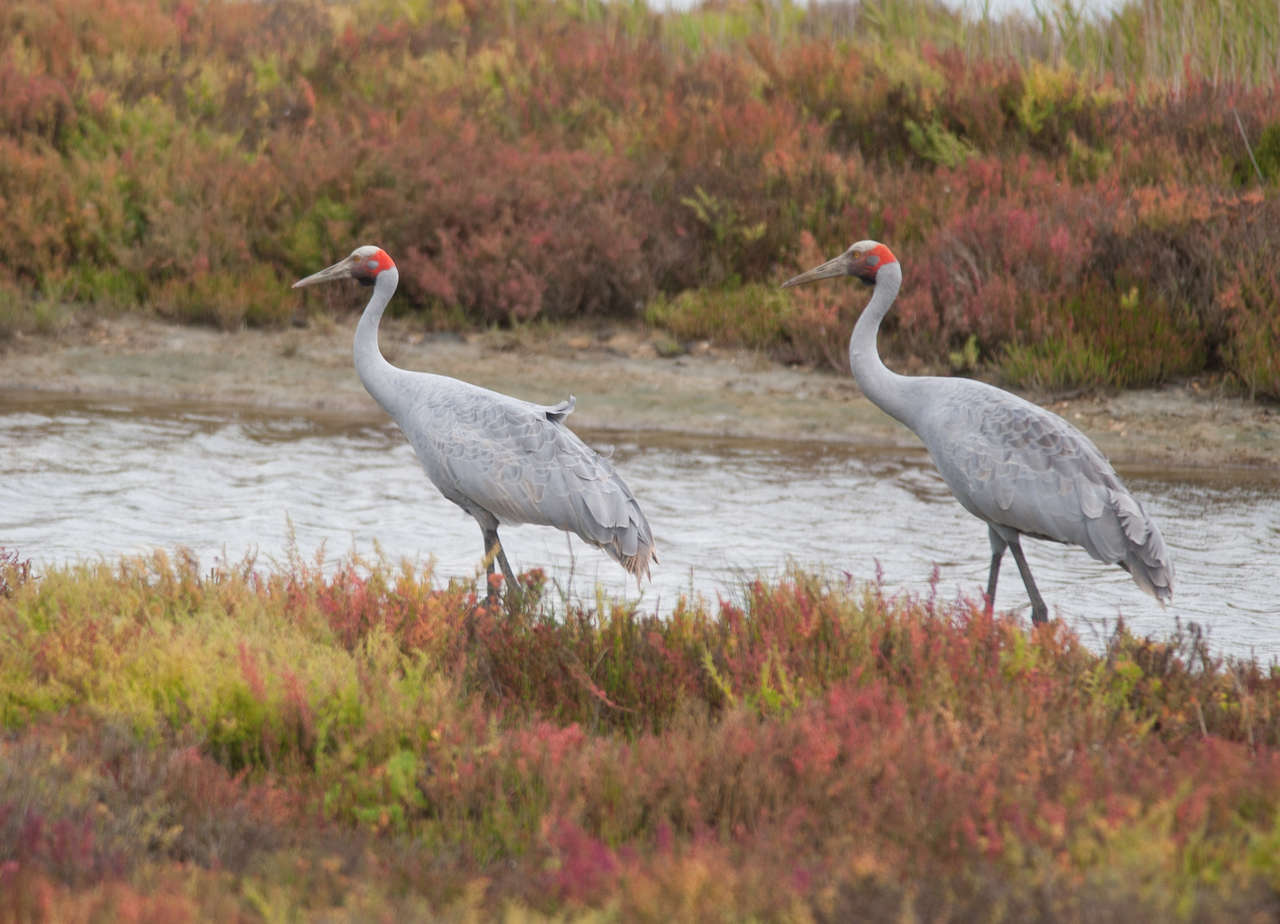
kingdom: Animalia
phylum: Chordata
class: Aves
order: Gruiformes
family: Gruidae
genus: Grus
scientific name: Grus rubicunda
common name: Brolga
